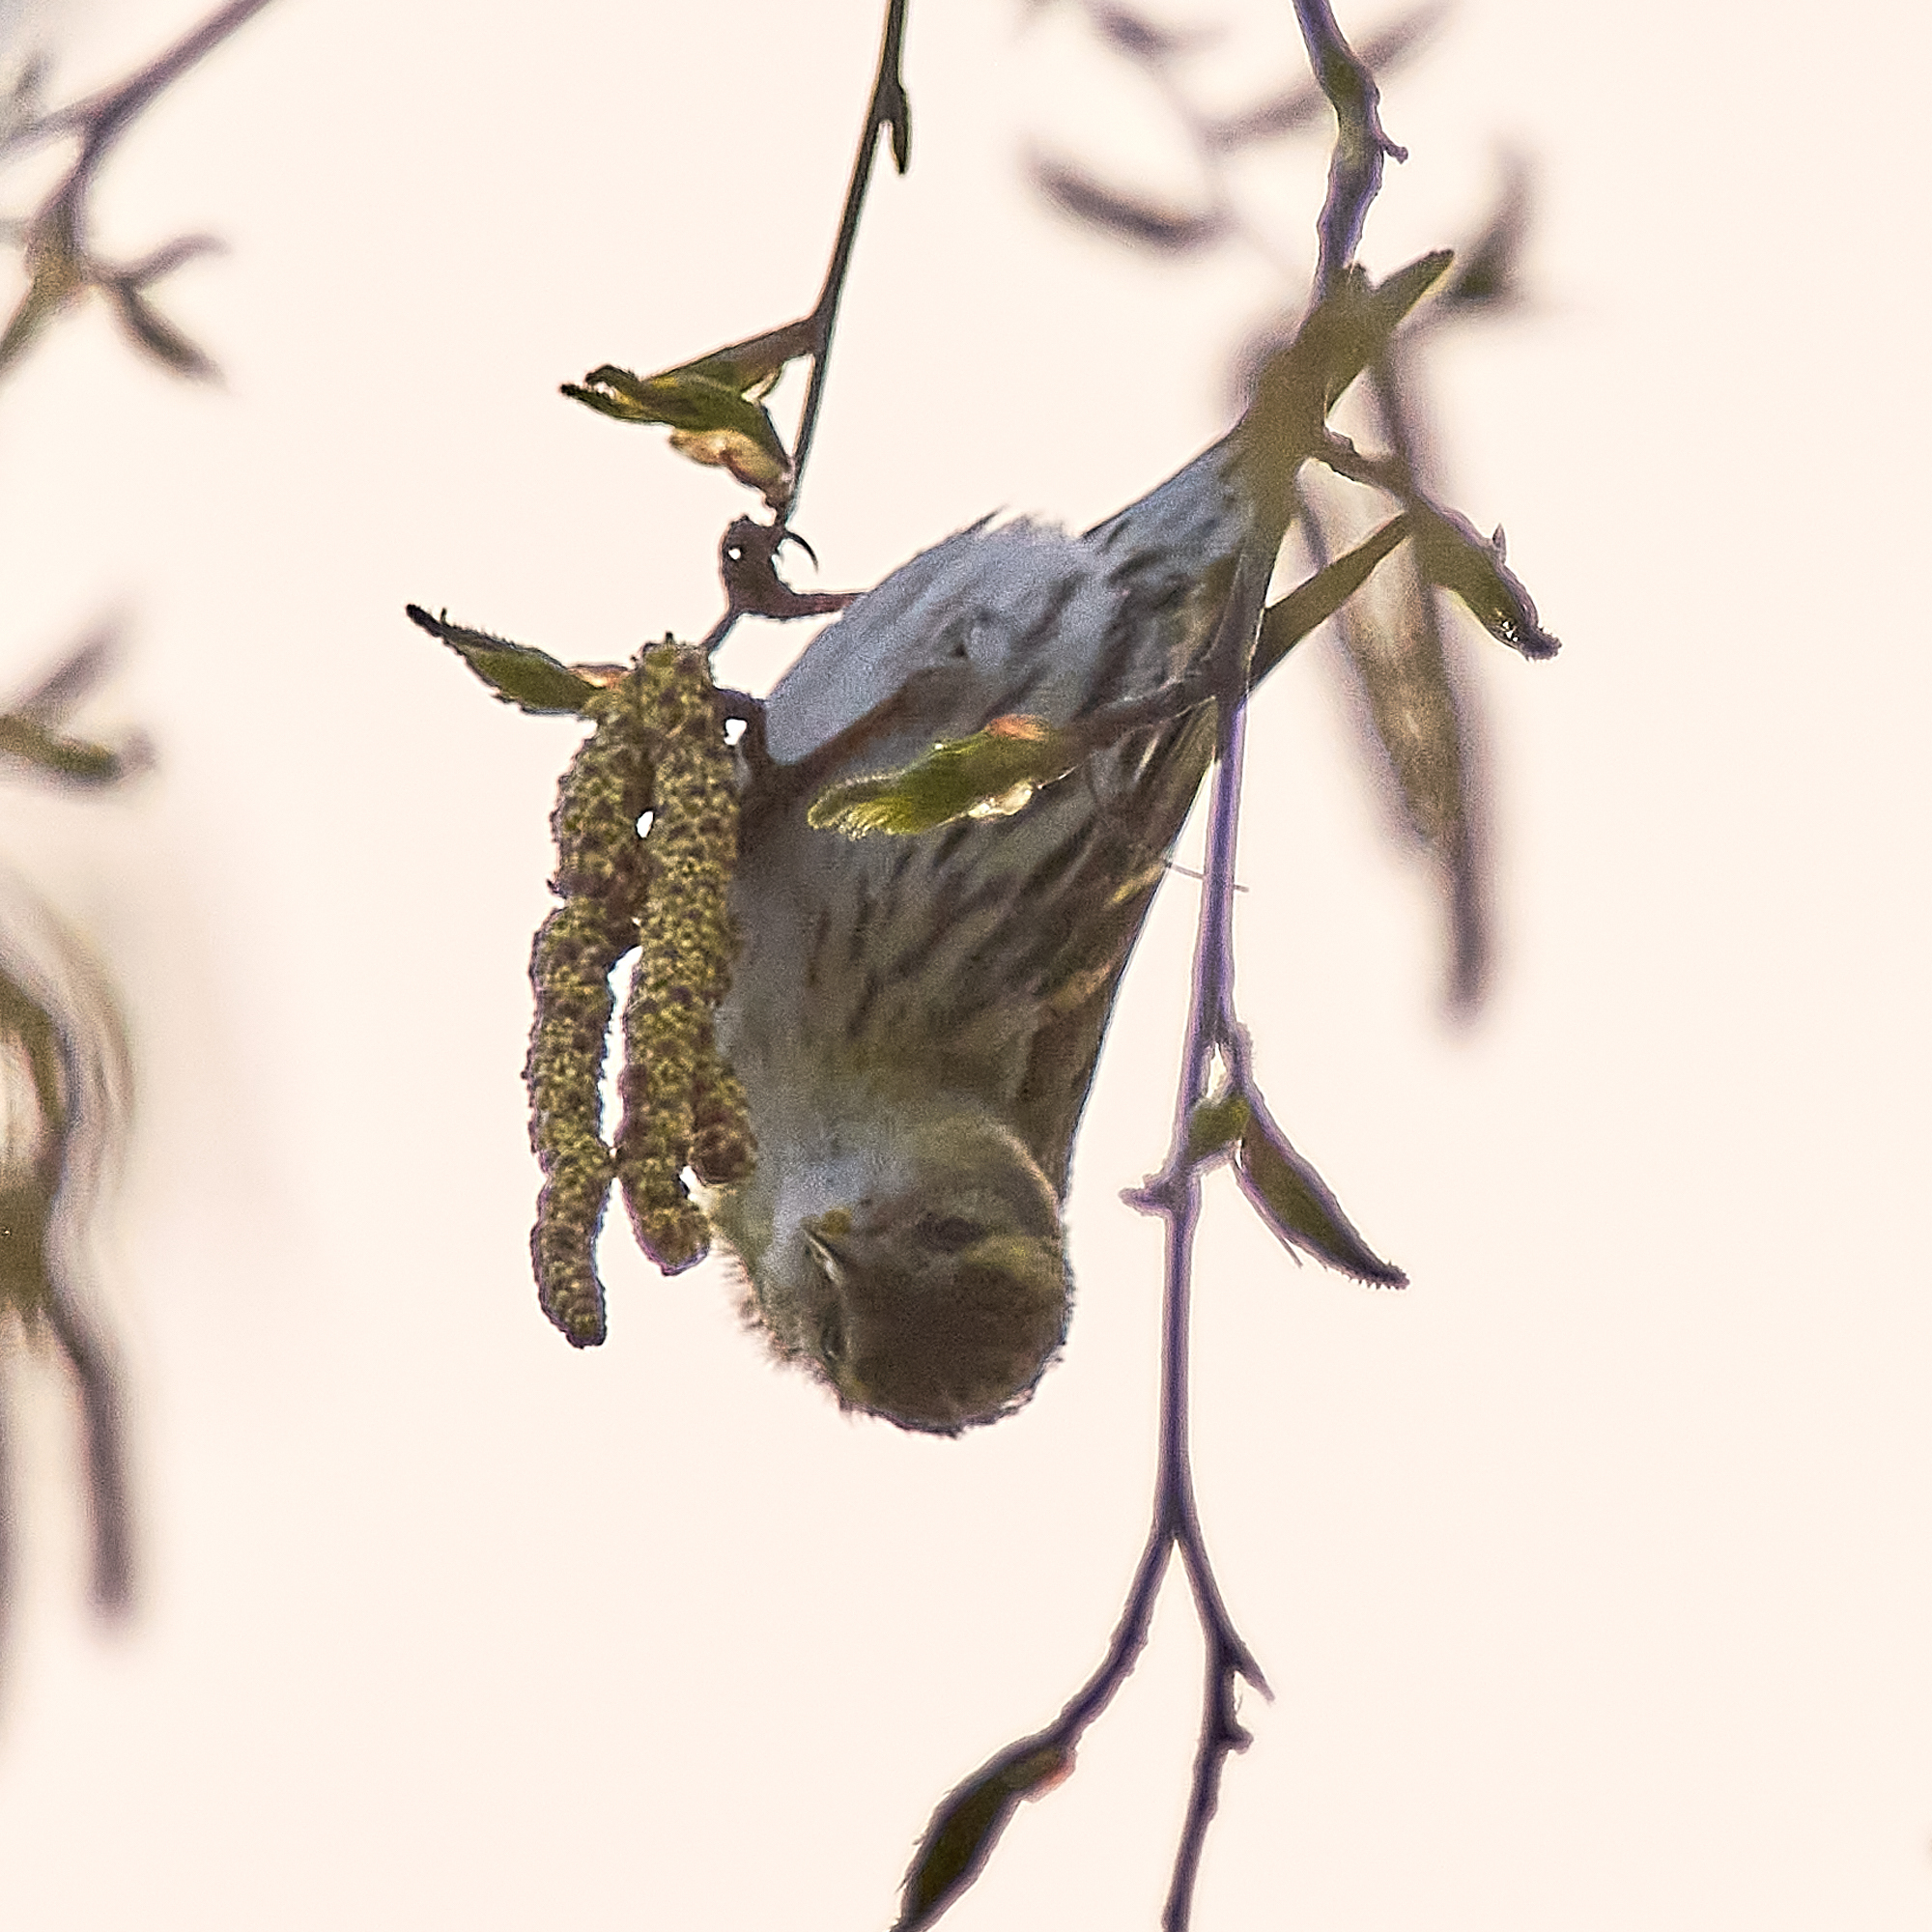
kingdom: Animalia
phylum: Chordata
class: Aves
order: Passeriformes
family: Fringillidae
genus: Spinus
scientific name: Spinus spinus
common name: Eurasian siskin
